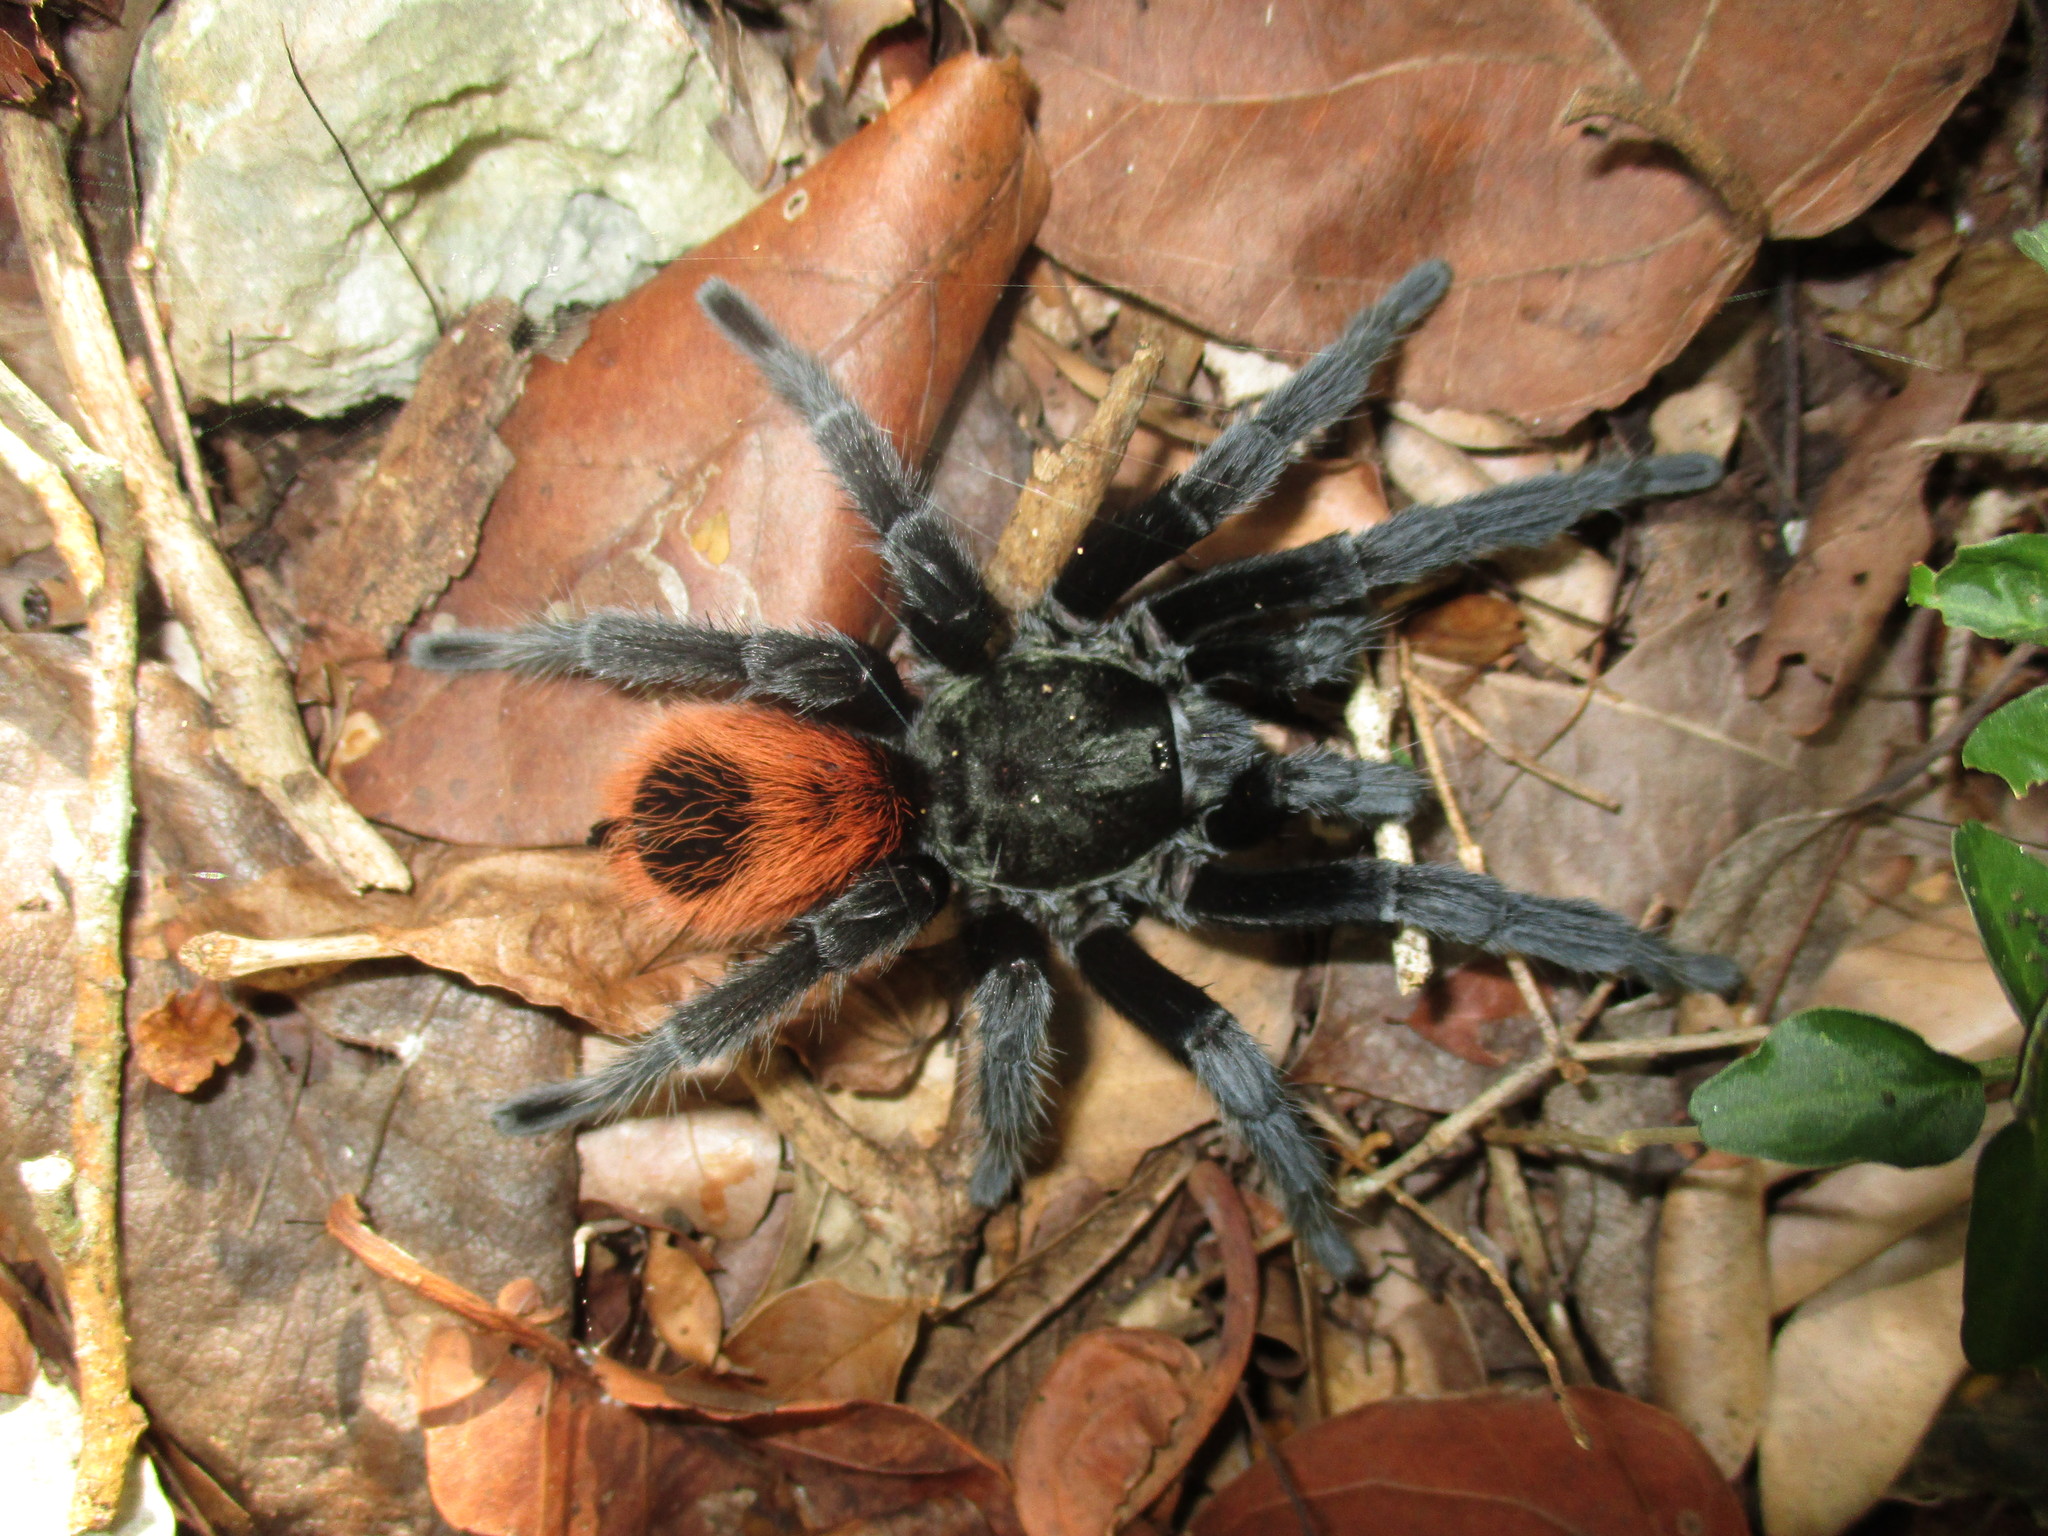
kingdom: Animalia
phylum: Arthropoda
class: Arachnida
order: Araneae
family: Theraphosidae
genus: Tliltocatl
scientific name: Tliltocatl epicureanus
